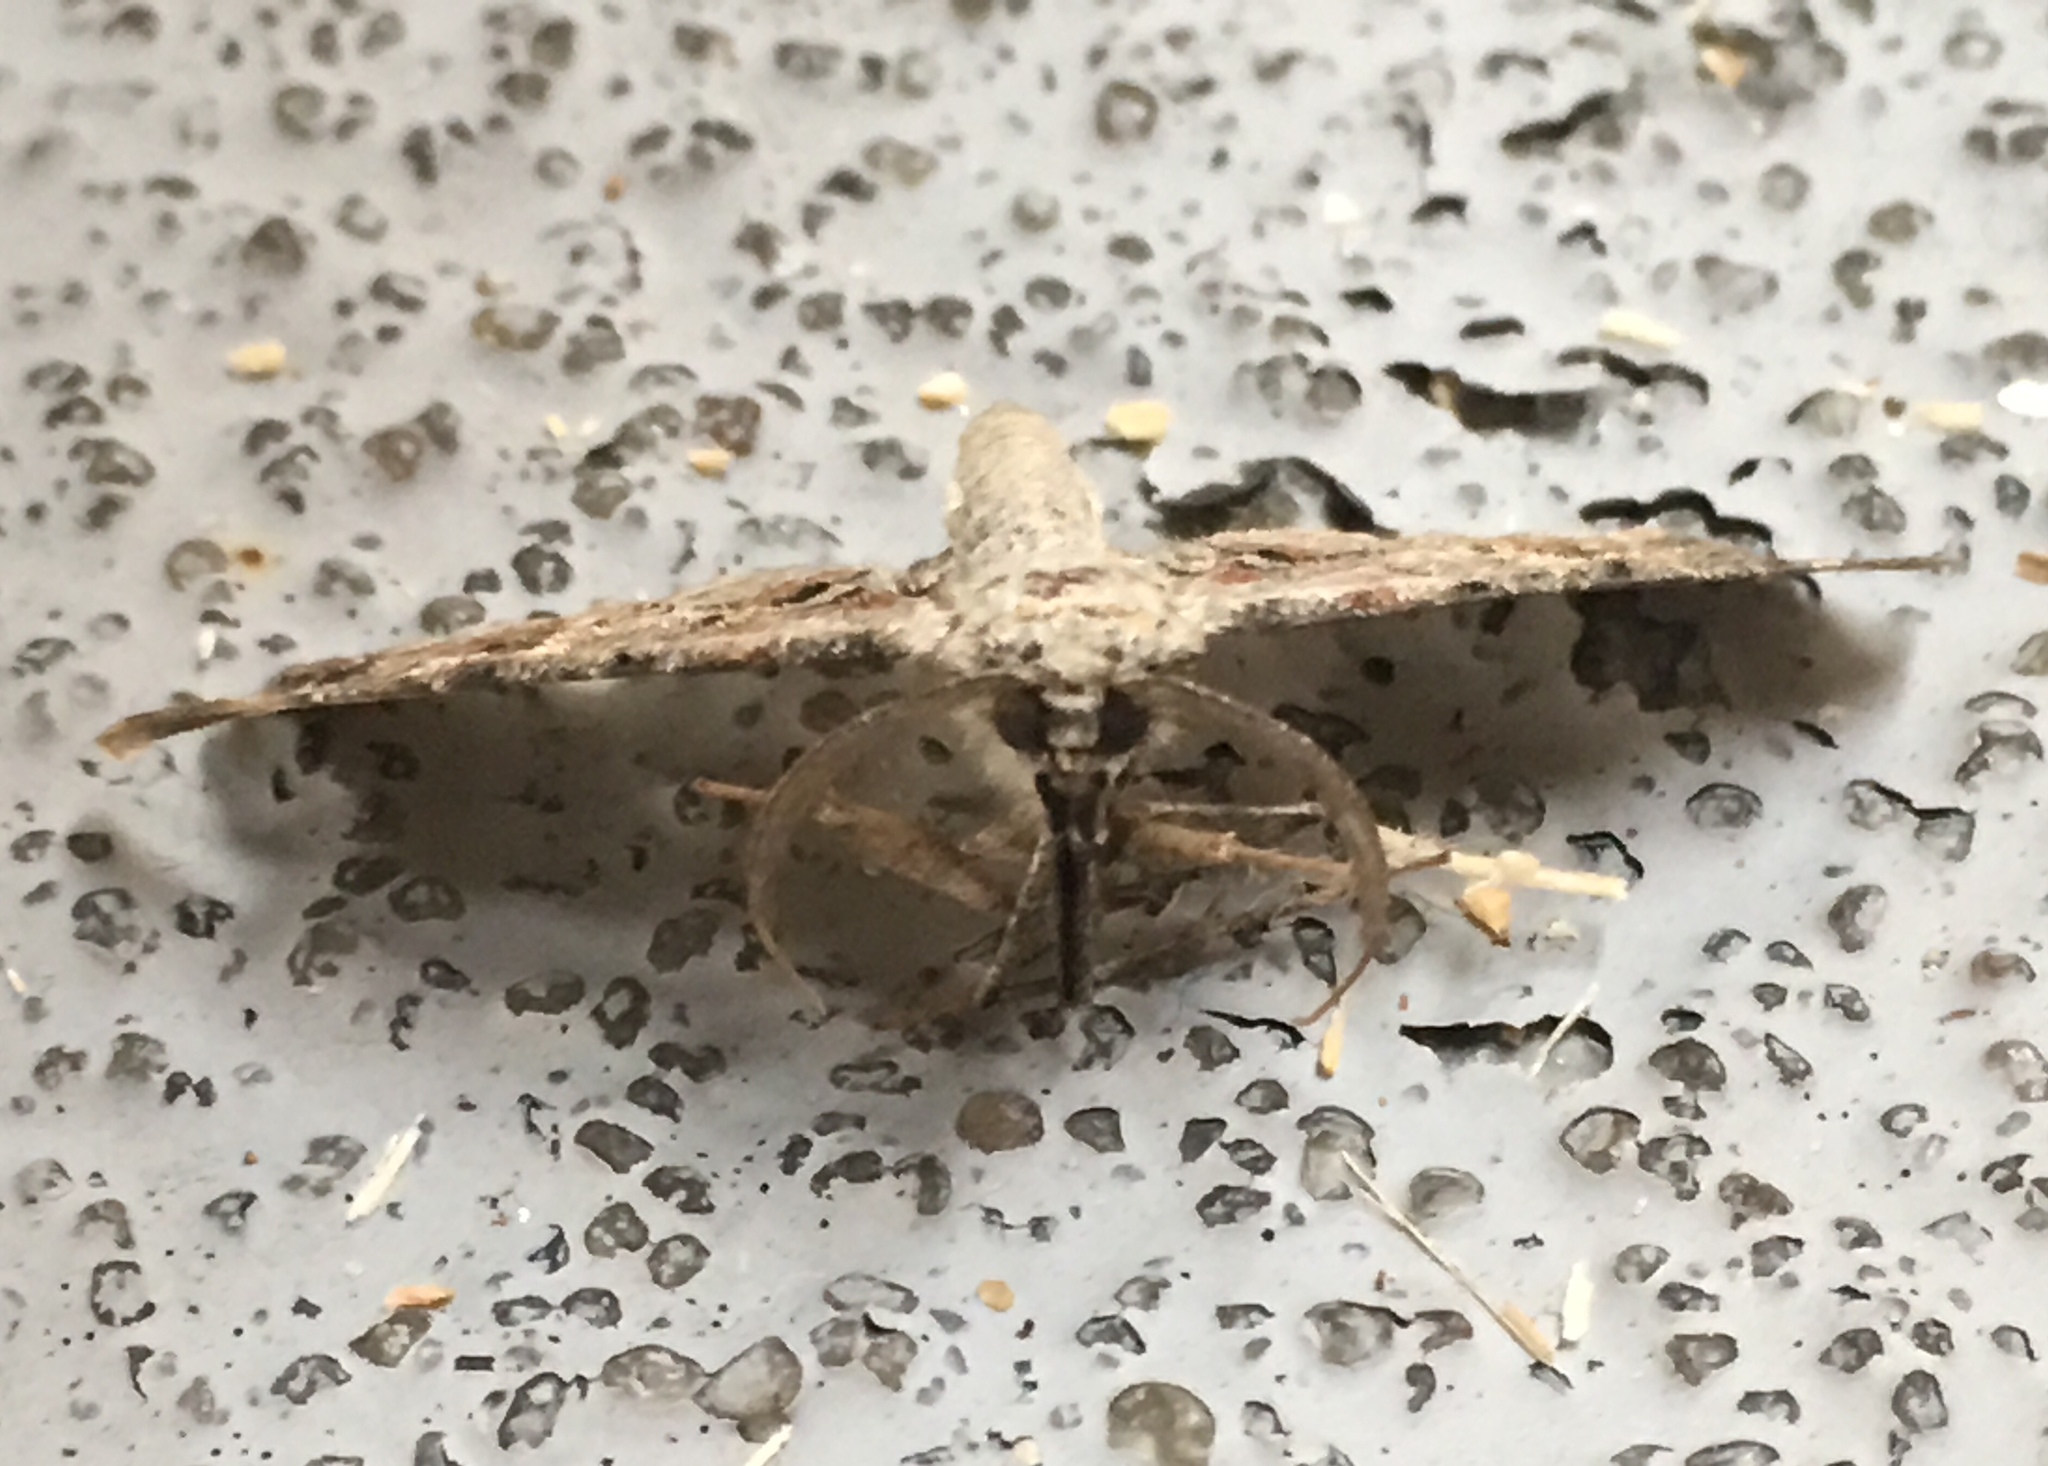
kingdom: Animalia
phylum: Arthropoda
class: Insecta
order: Lepidoptera
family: Geometridae
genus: Iridopsis
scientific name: Iridopsis defectaria
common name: Brown-shaded gray
